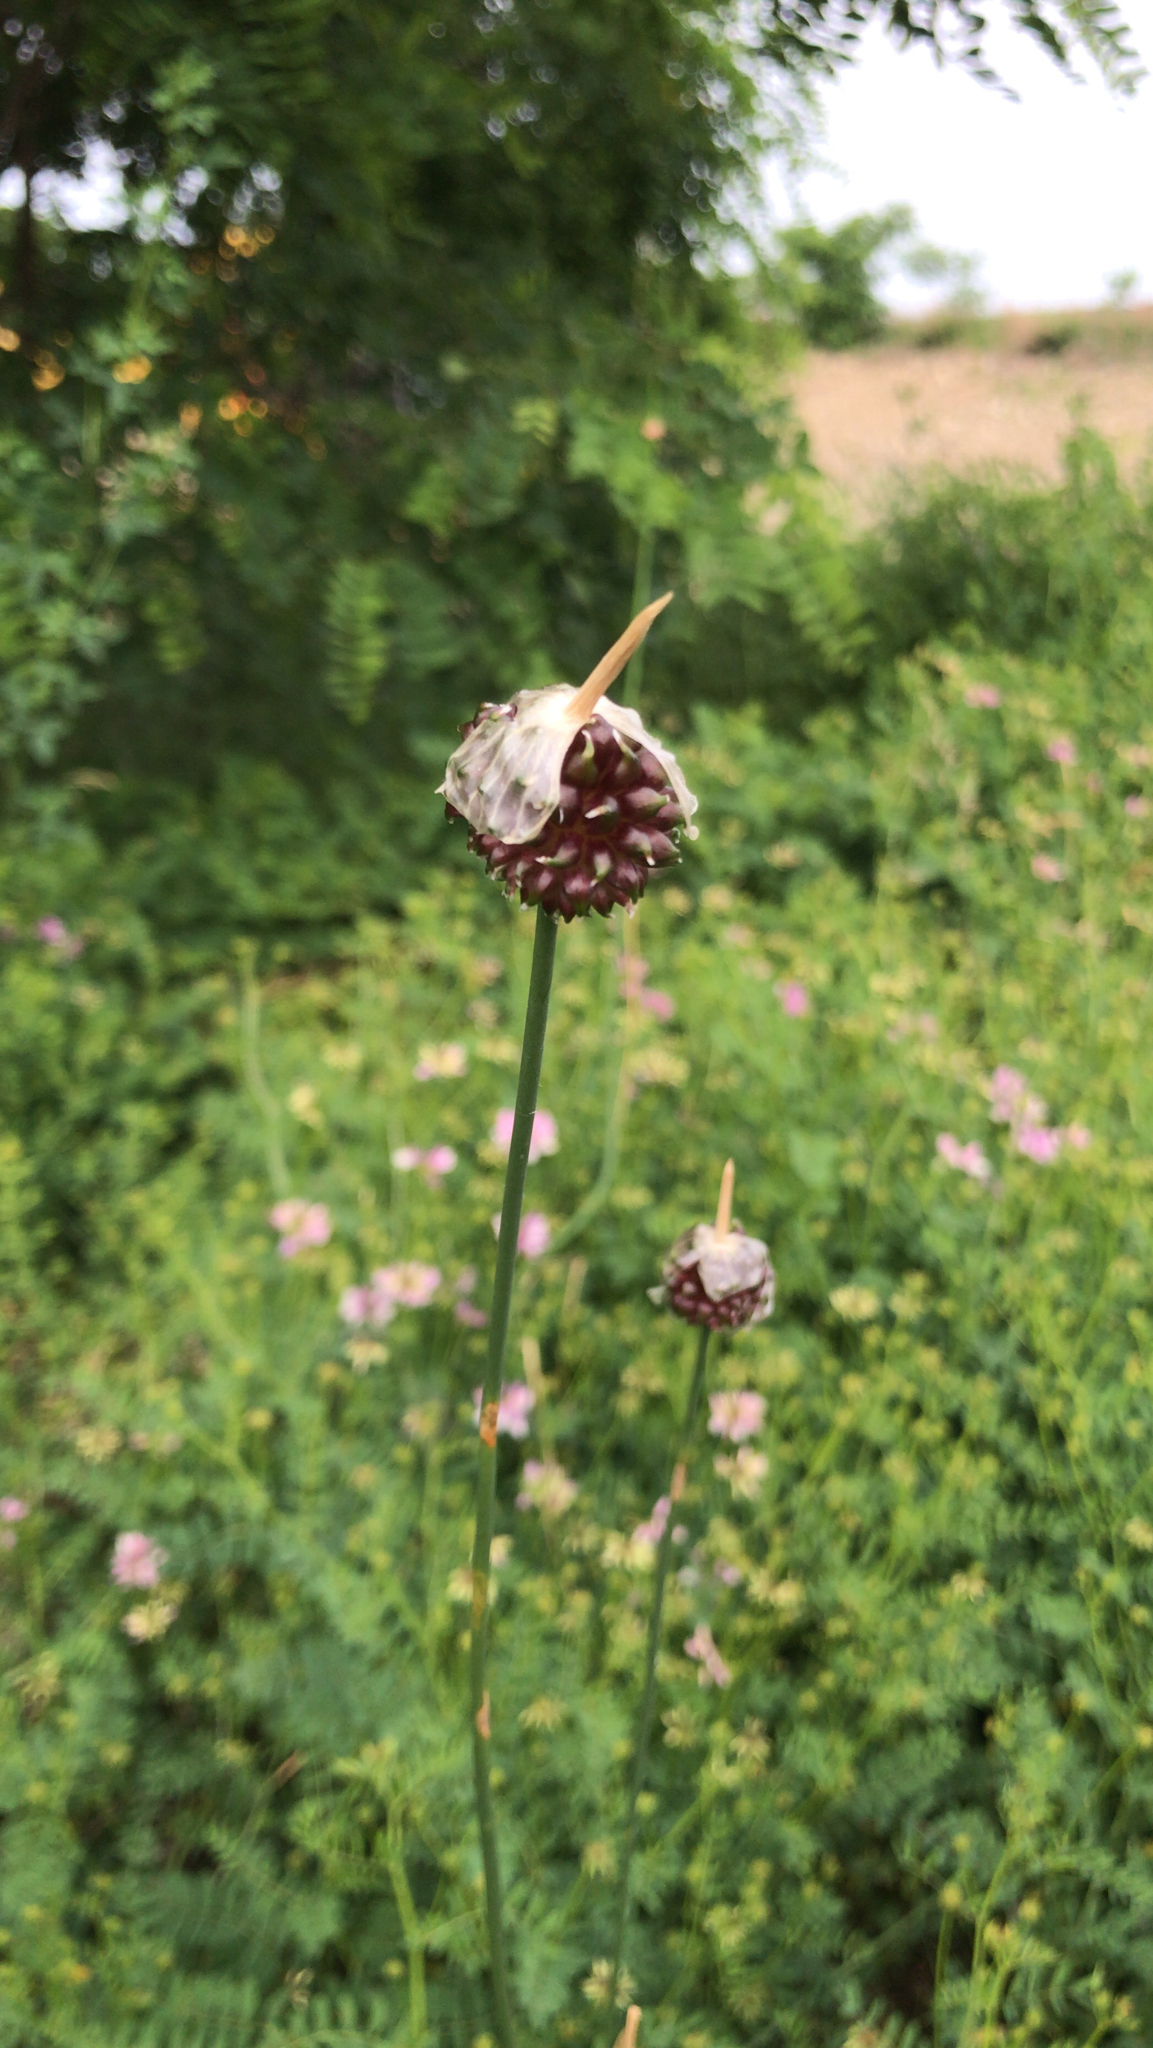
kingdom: Plantae
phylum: Tracheophyta
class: Liliopsida
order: Asparagales
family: Amaryllidaceae
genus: Allium
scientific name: Allium vineale
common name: Crow garlic
